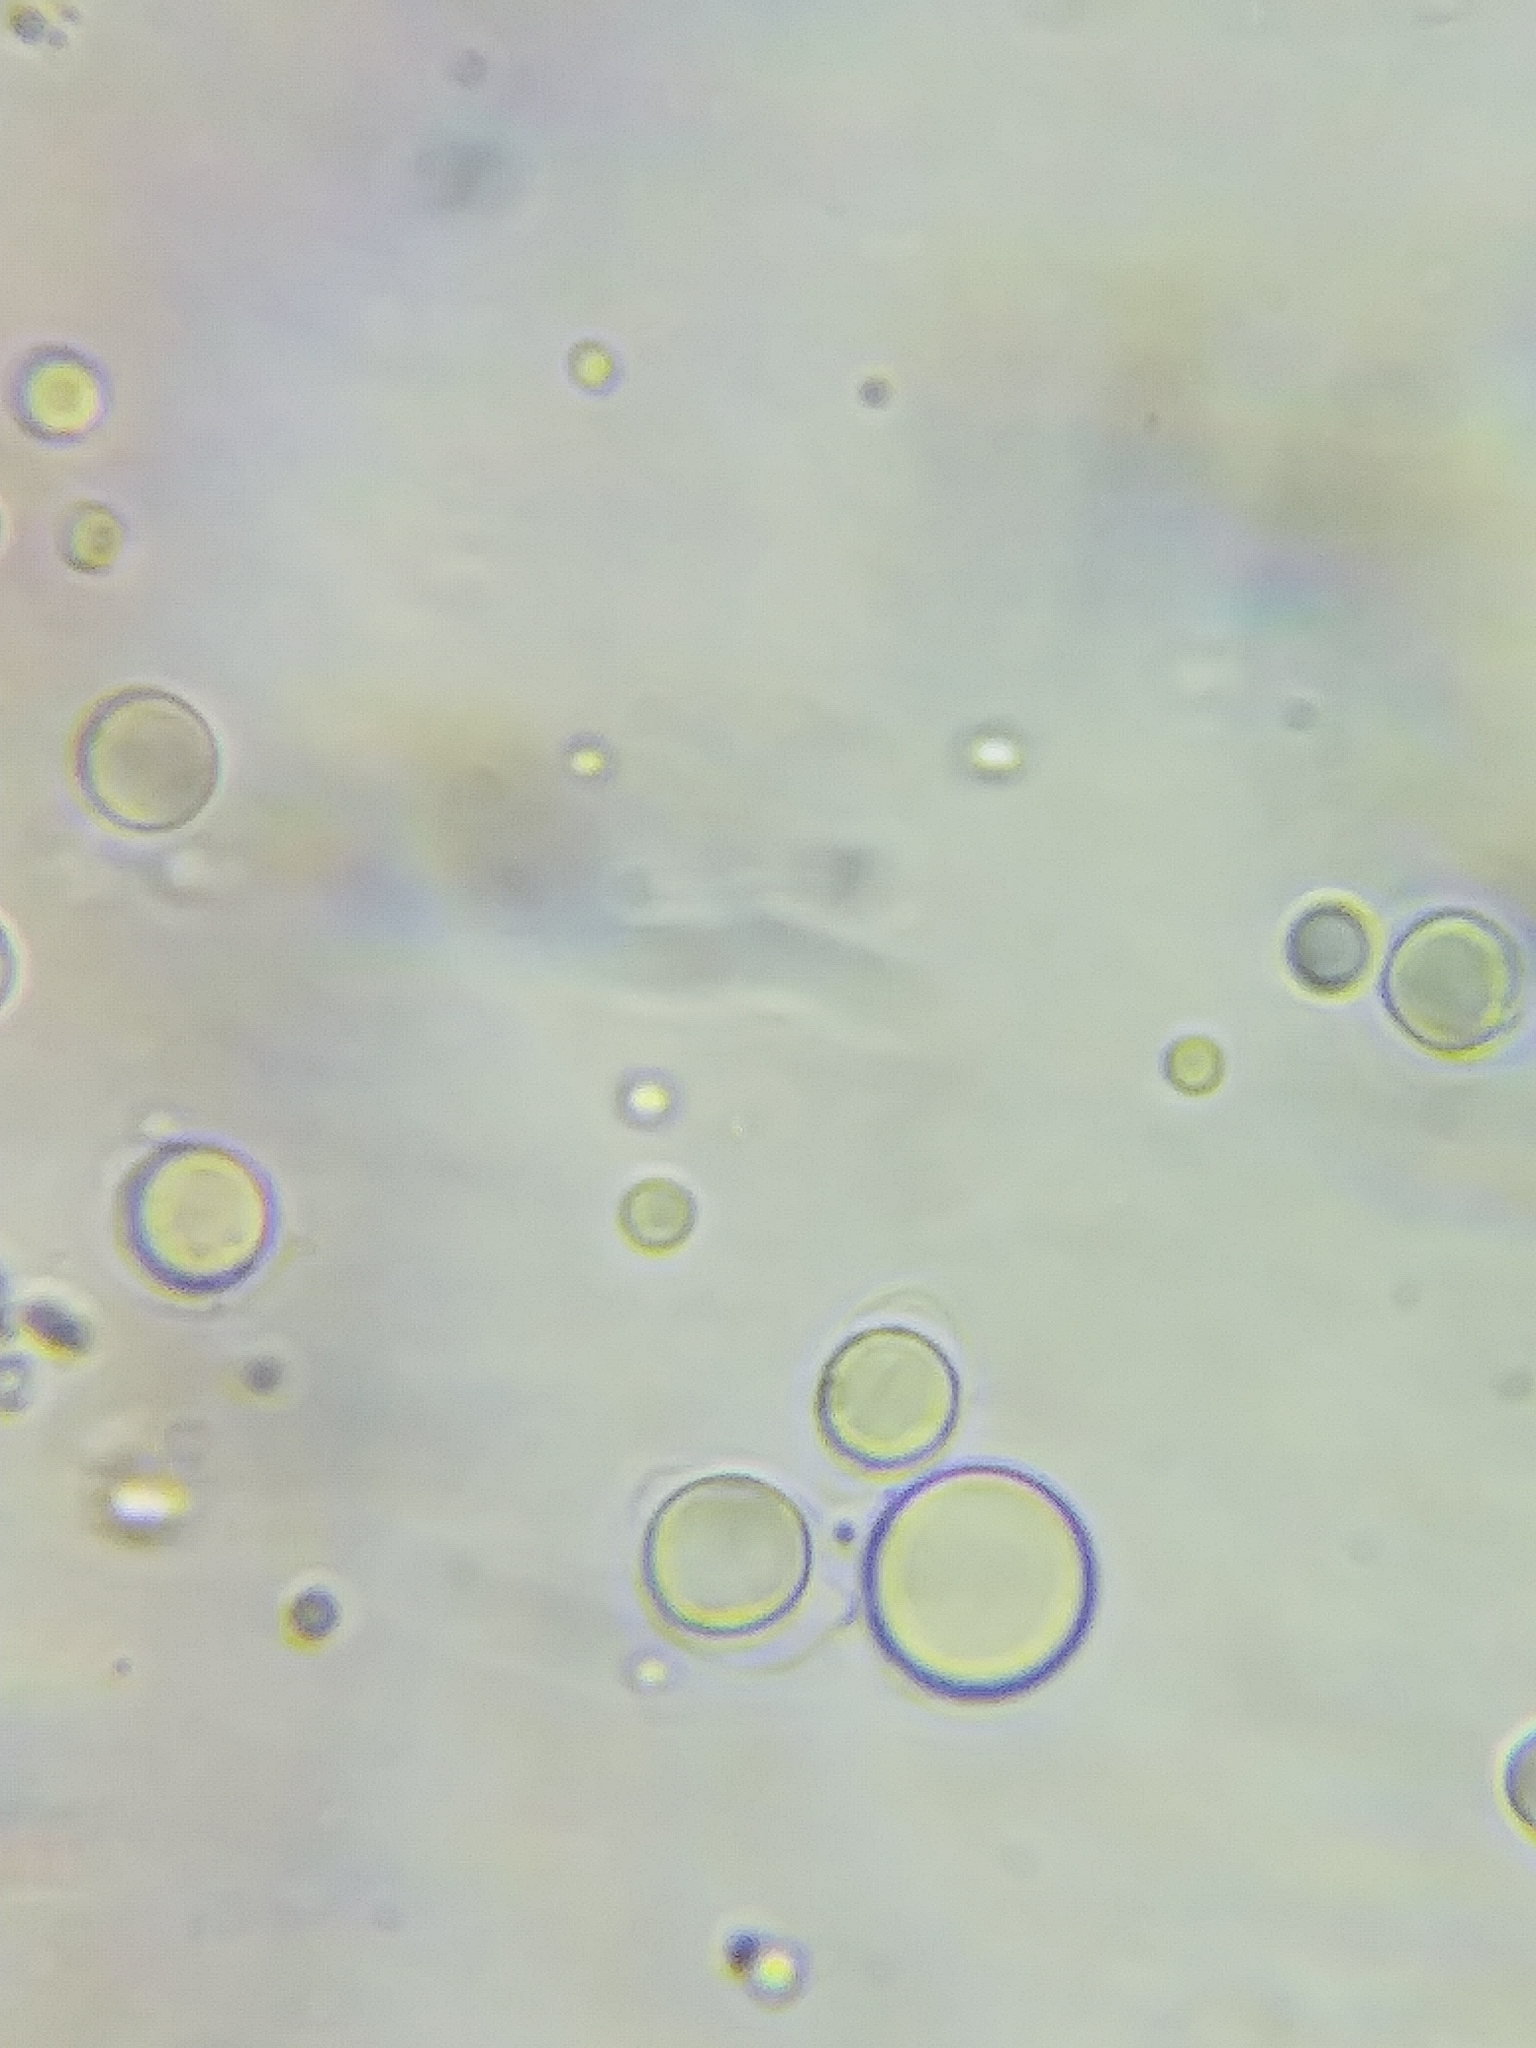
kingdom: Fungi
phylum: Basidiomycota
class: Agaricomycetes
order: Agaricales
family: Mycenaceae
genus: Mycena
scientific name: Mycena inclinata
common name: Clustered bonnet
